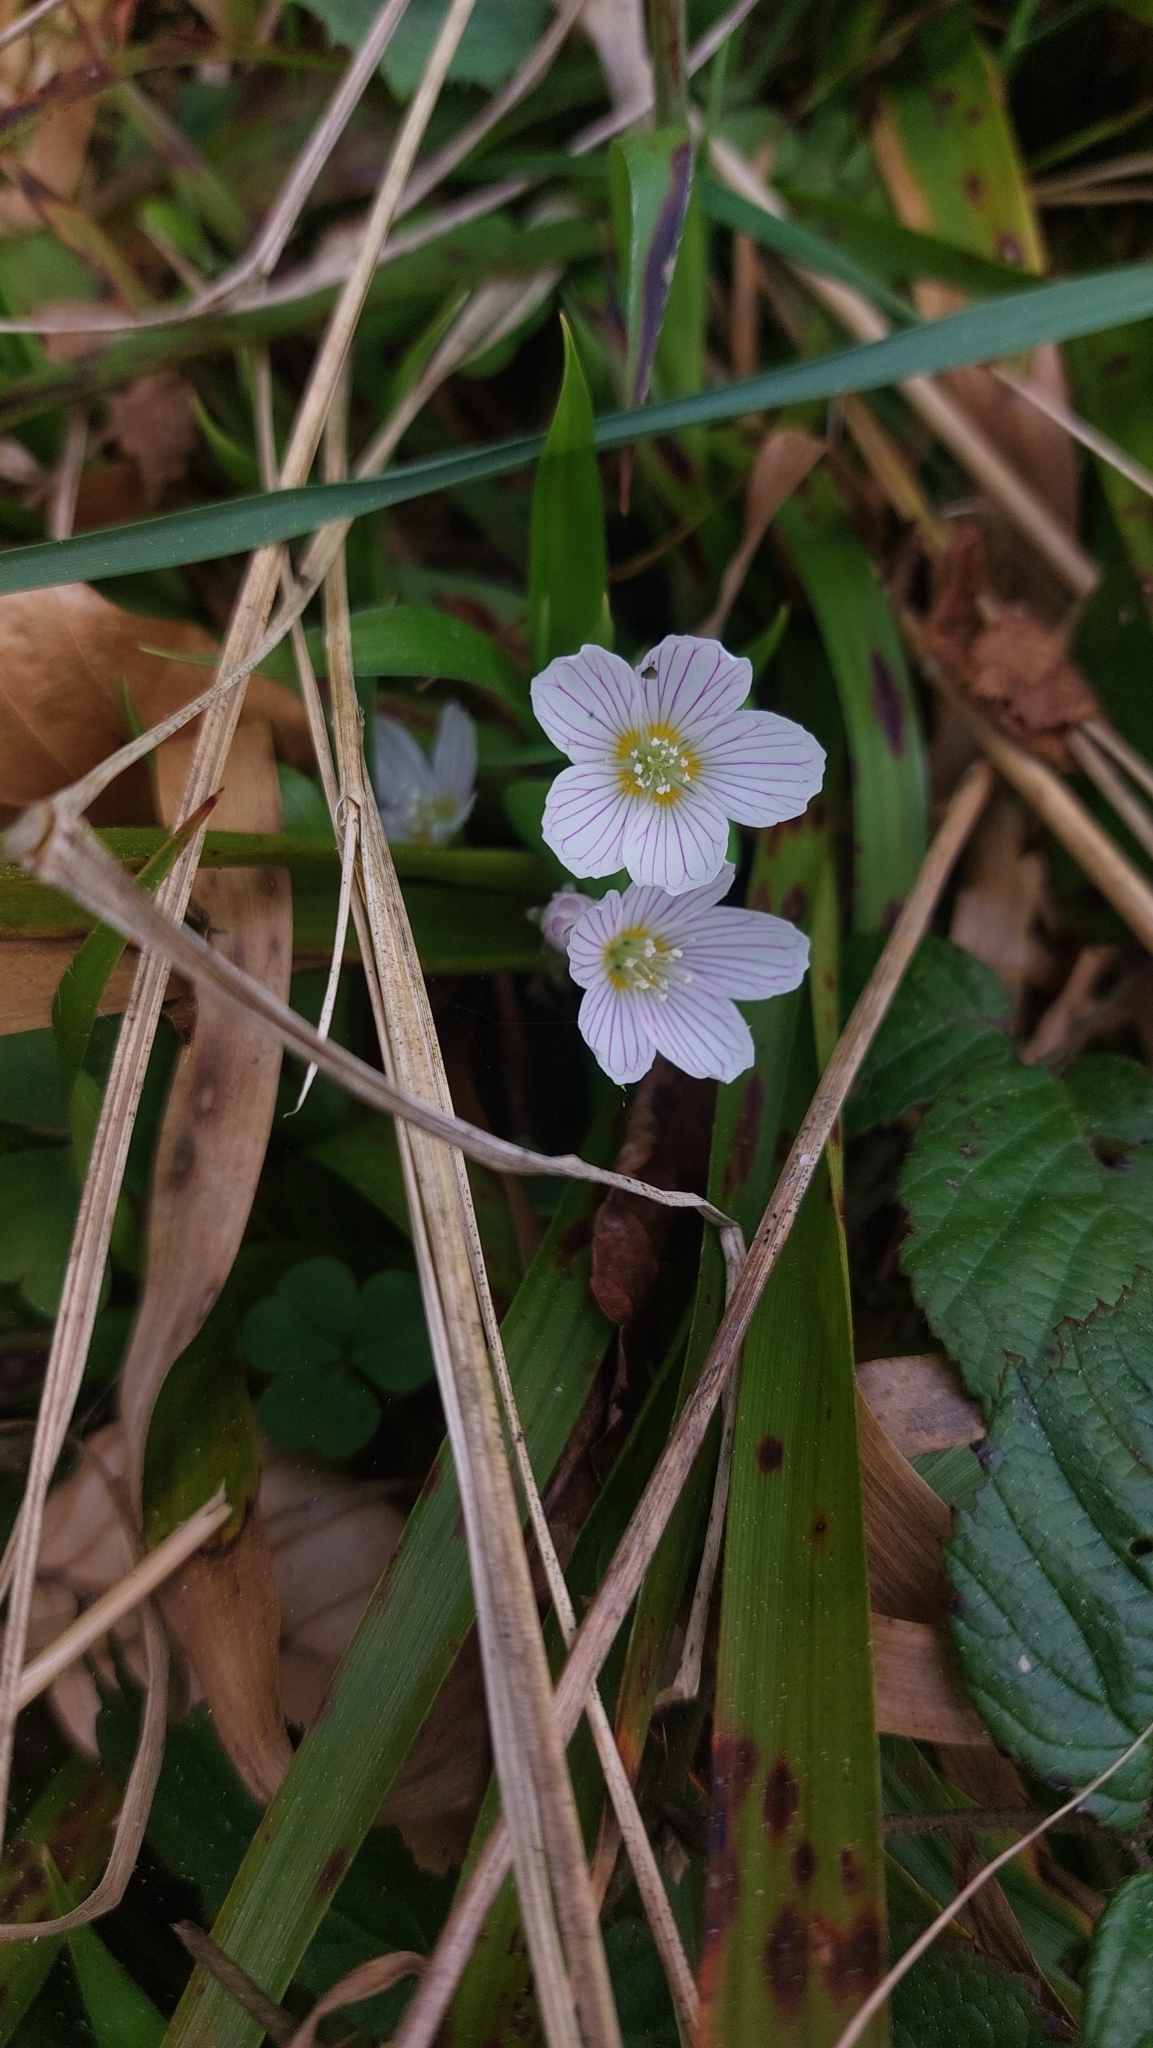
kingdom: Plantae
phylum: Tracheophyta
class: Magnoliopsida
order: Oxalidales
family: Oxalidaceae
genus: Oxalis
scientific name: Oxalis acetosella
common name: Wood-sorrel
